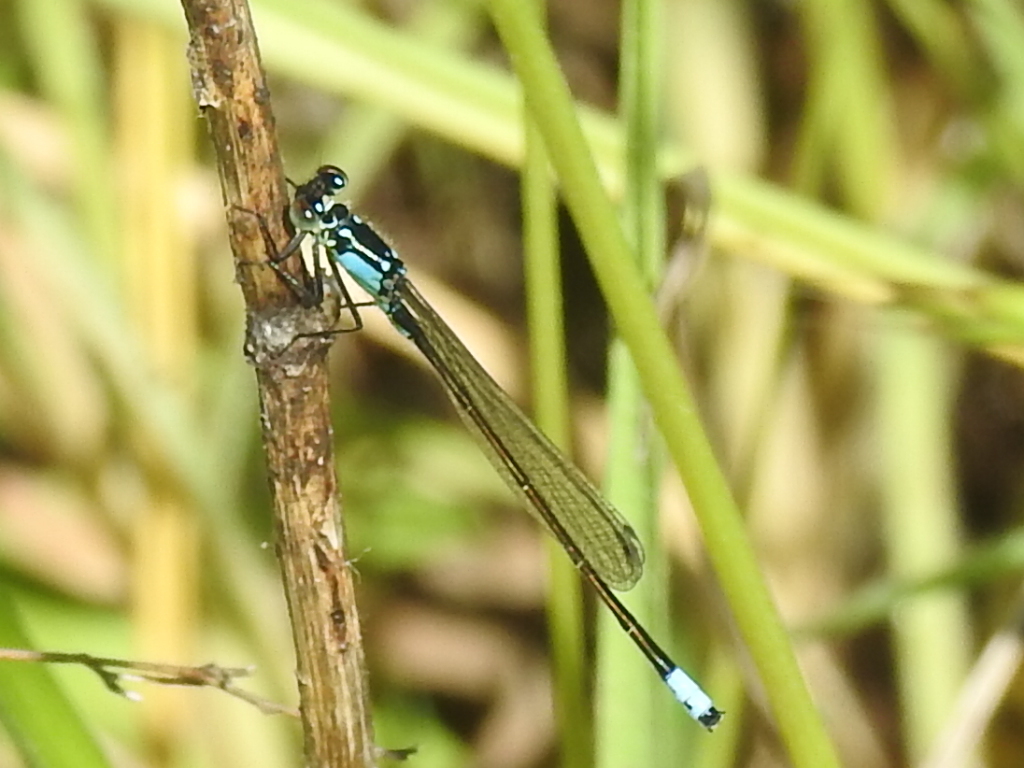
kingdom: Animalia
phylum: Arthropoda
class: Insecta
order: Odonata
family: Coenagrionidae
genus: Ischnura
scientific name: Ischnura cervula
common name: Pacific forktail
